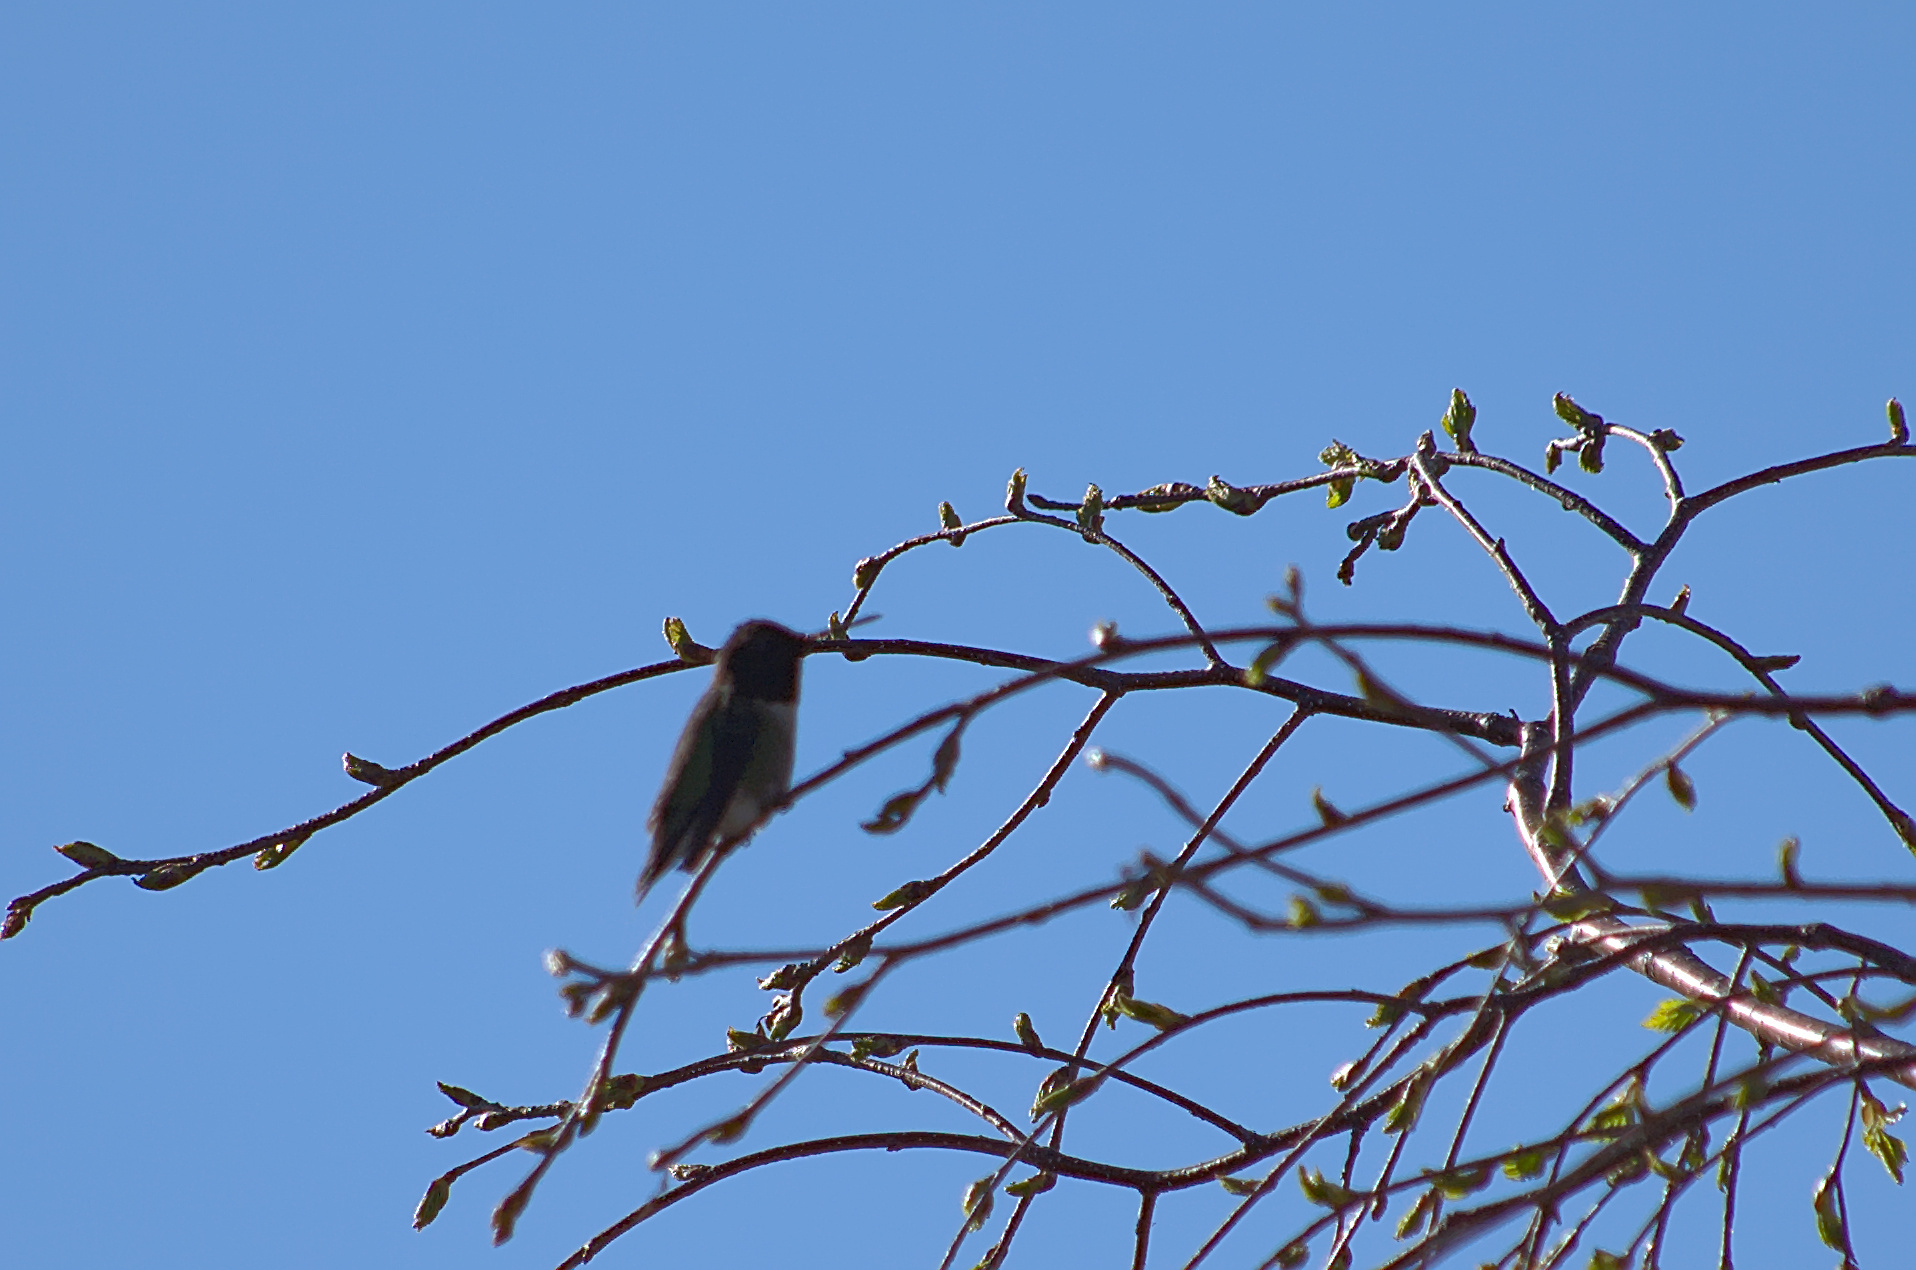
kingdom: Animalia
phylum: Chordata
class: Aves
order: Apodiformes
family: Trochilidae
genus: Archilochus
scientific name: Archilochus colubris
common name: Ruby-throated hummingbird
